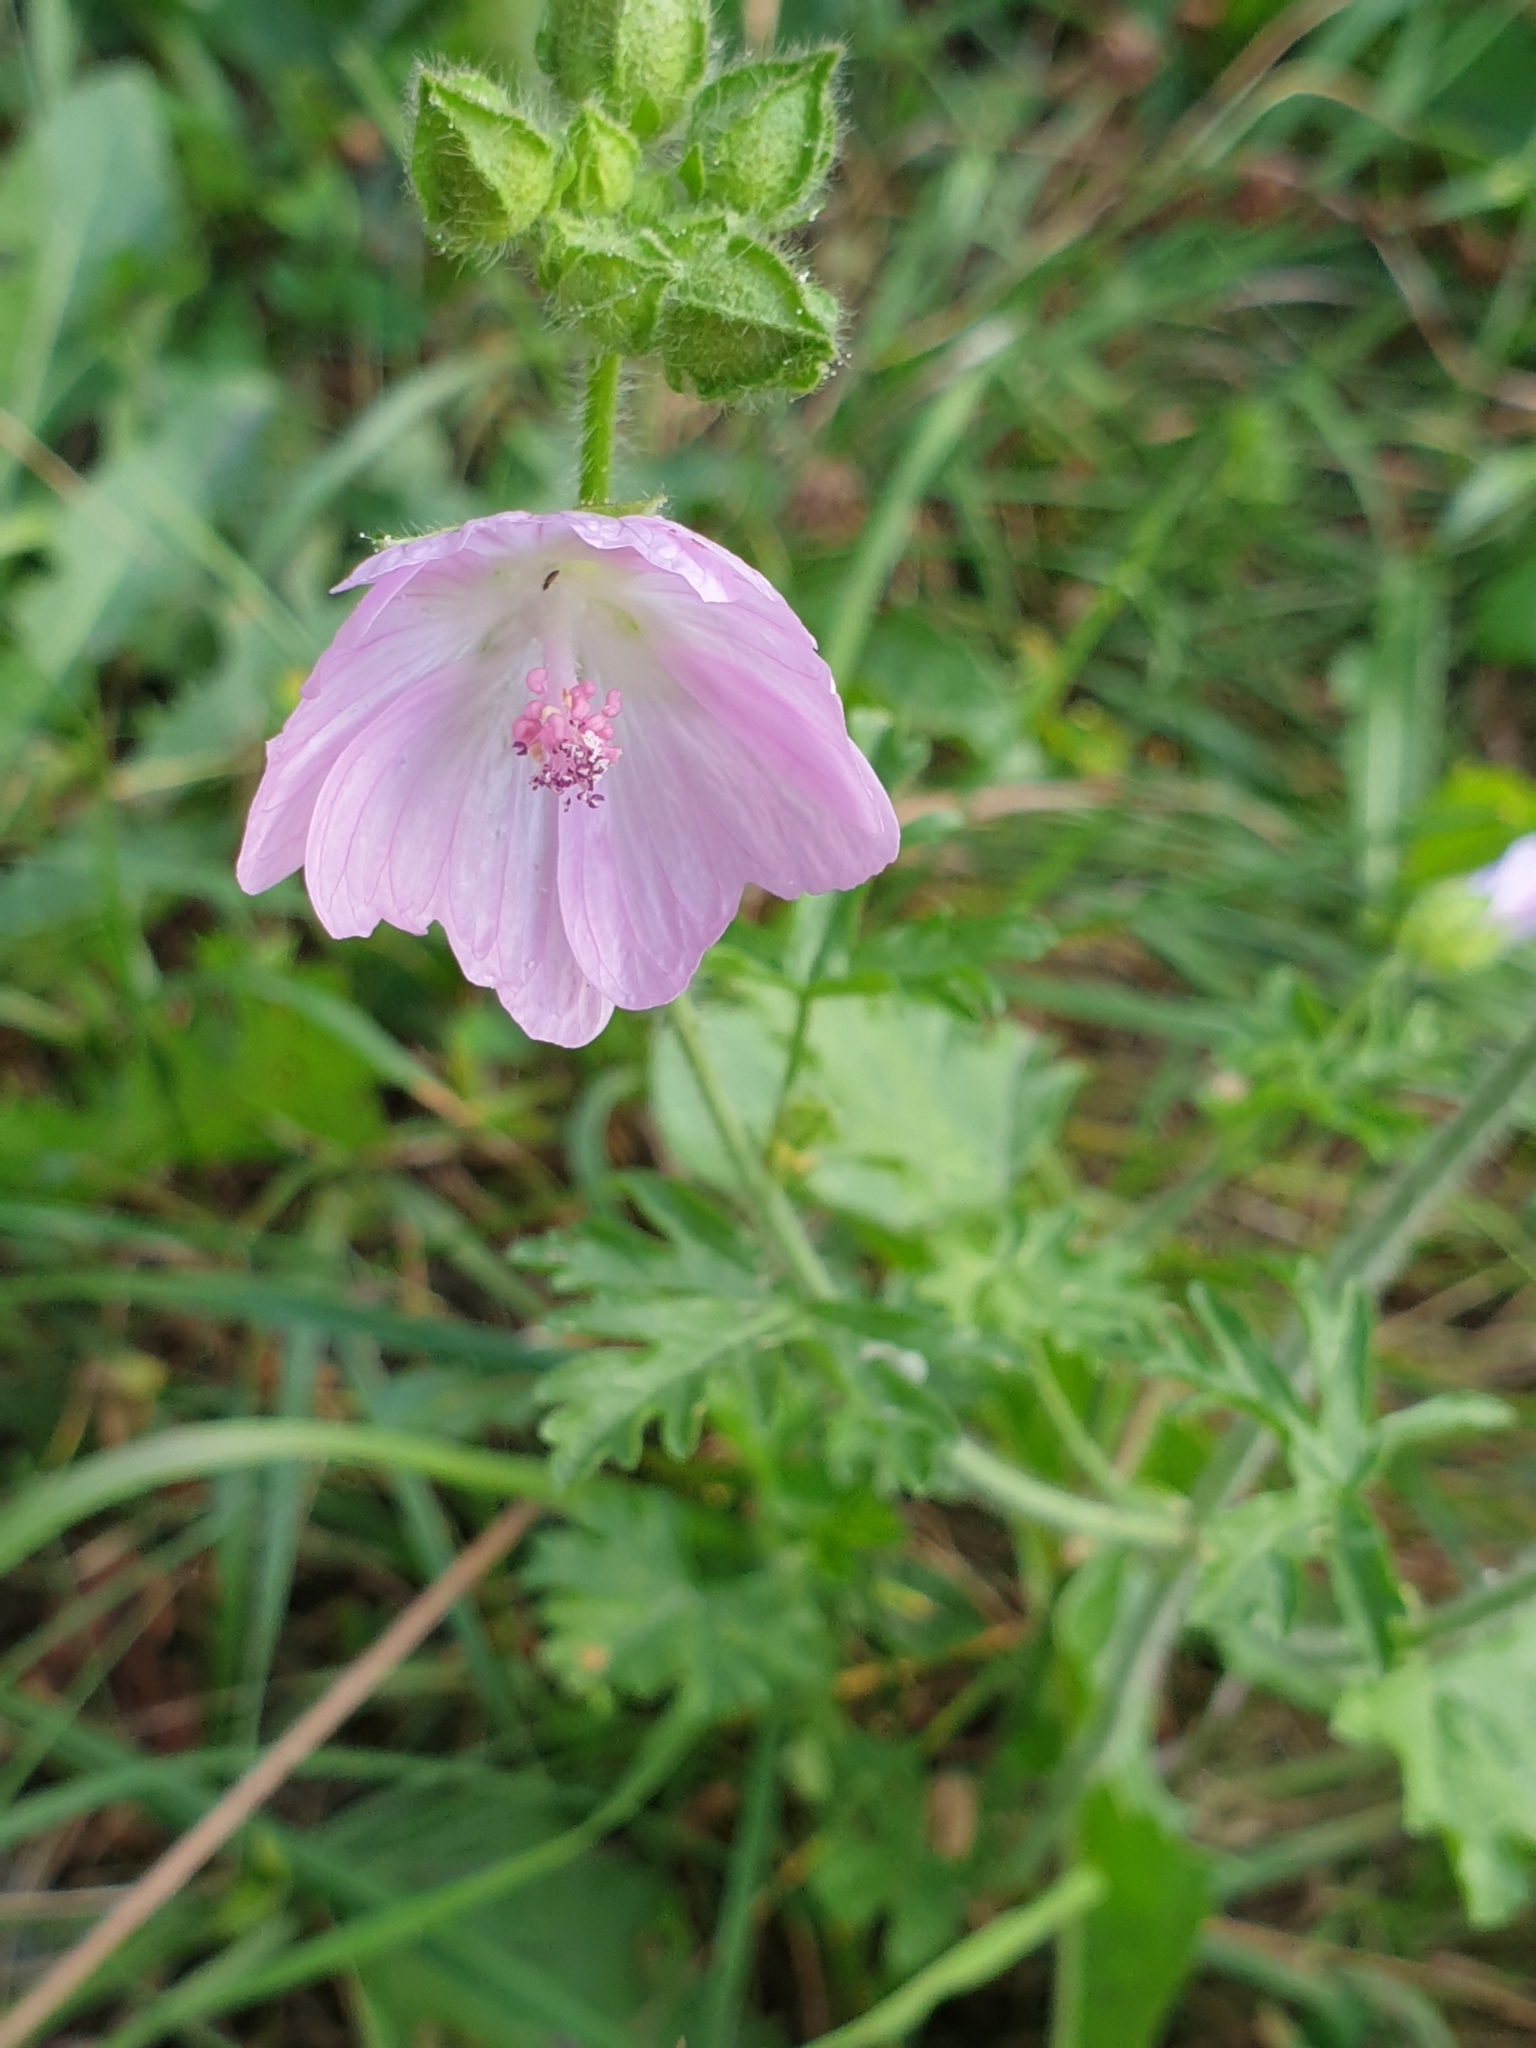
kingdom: Plantae
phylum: Tracheophyta
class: Magnoliopsida
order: Malvales
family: Malvaceae
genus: Malva
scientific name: Malva moschata
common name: Musk mallow
